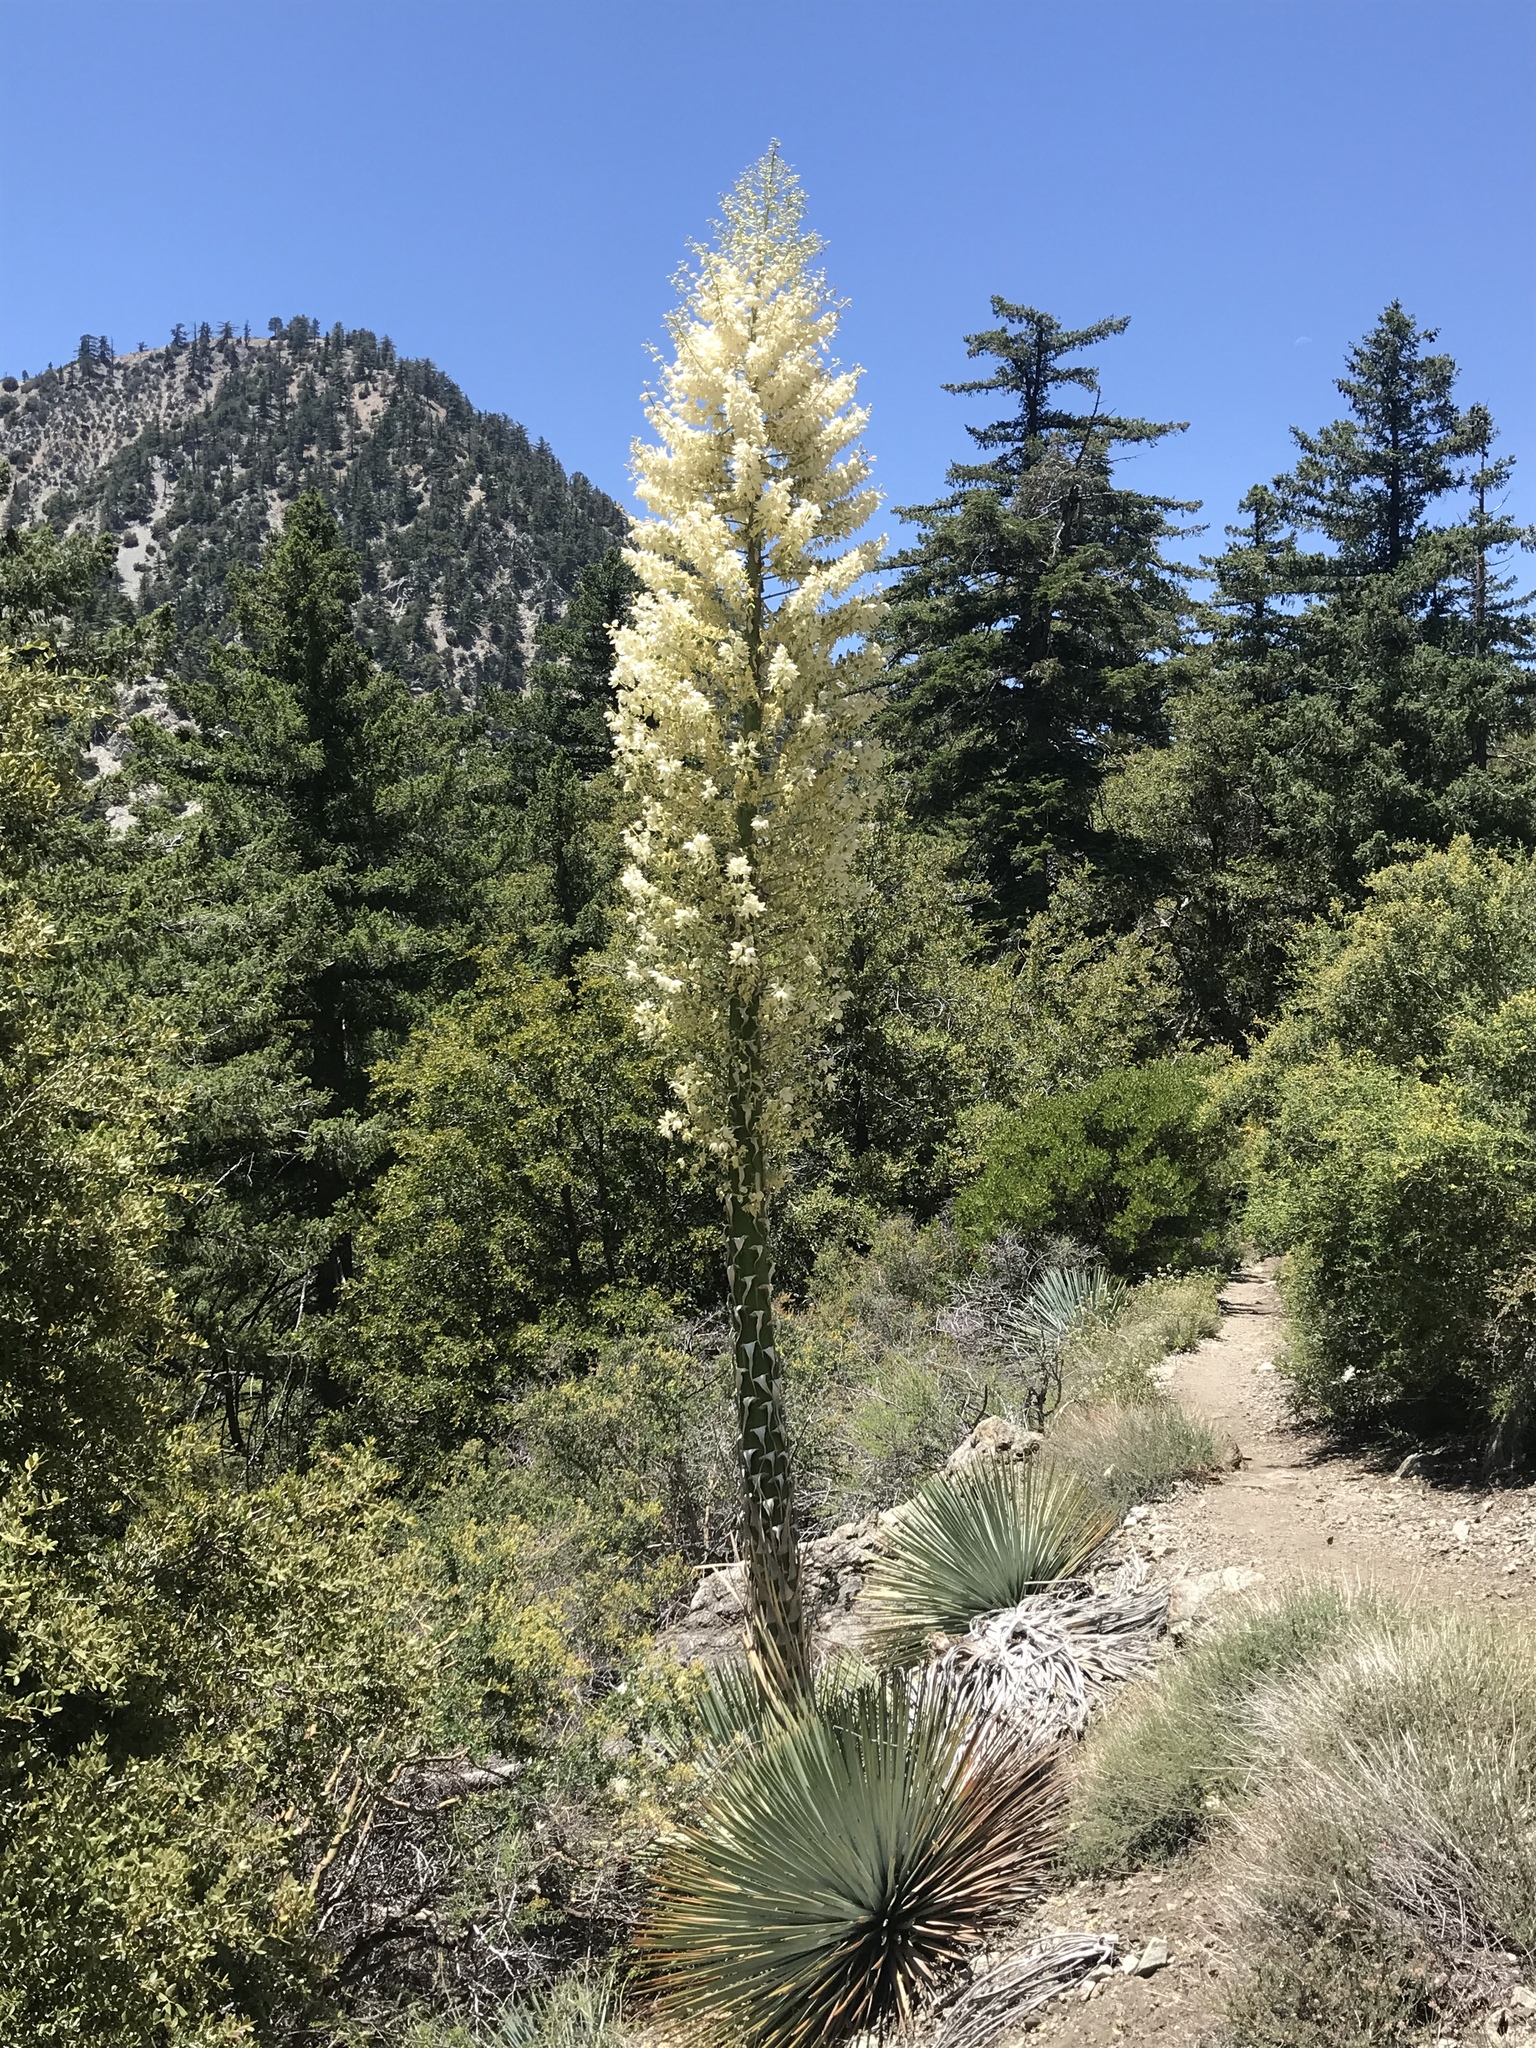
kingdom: Plantae
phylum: Tracheophyta
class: Liliopsida
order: Asparagales
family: Asparagaceae
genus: Hesperoyucca
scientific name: Hesperoyucca whipplei
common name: Our lord's-candle
